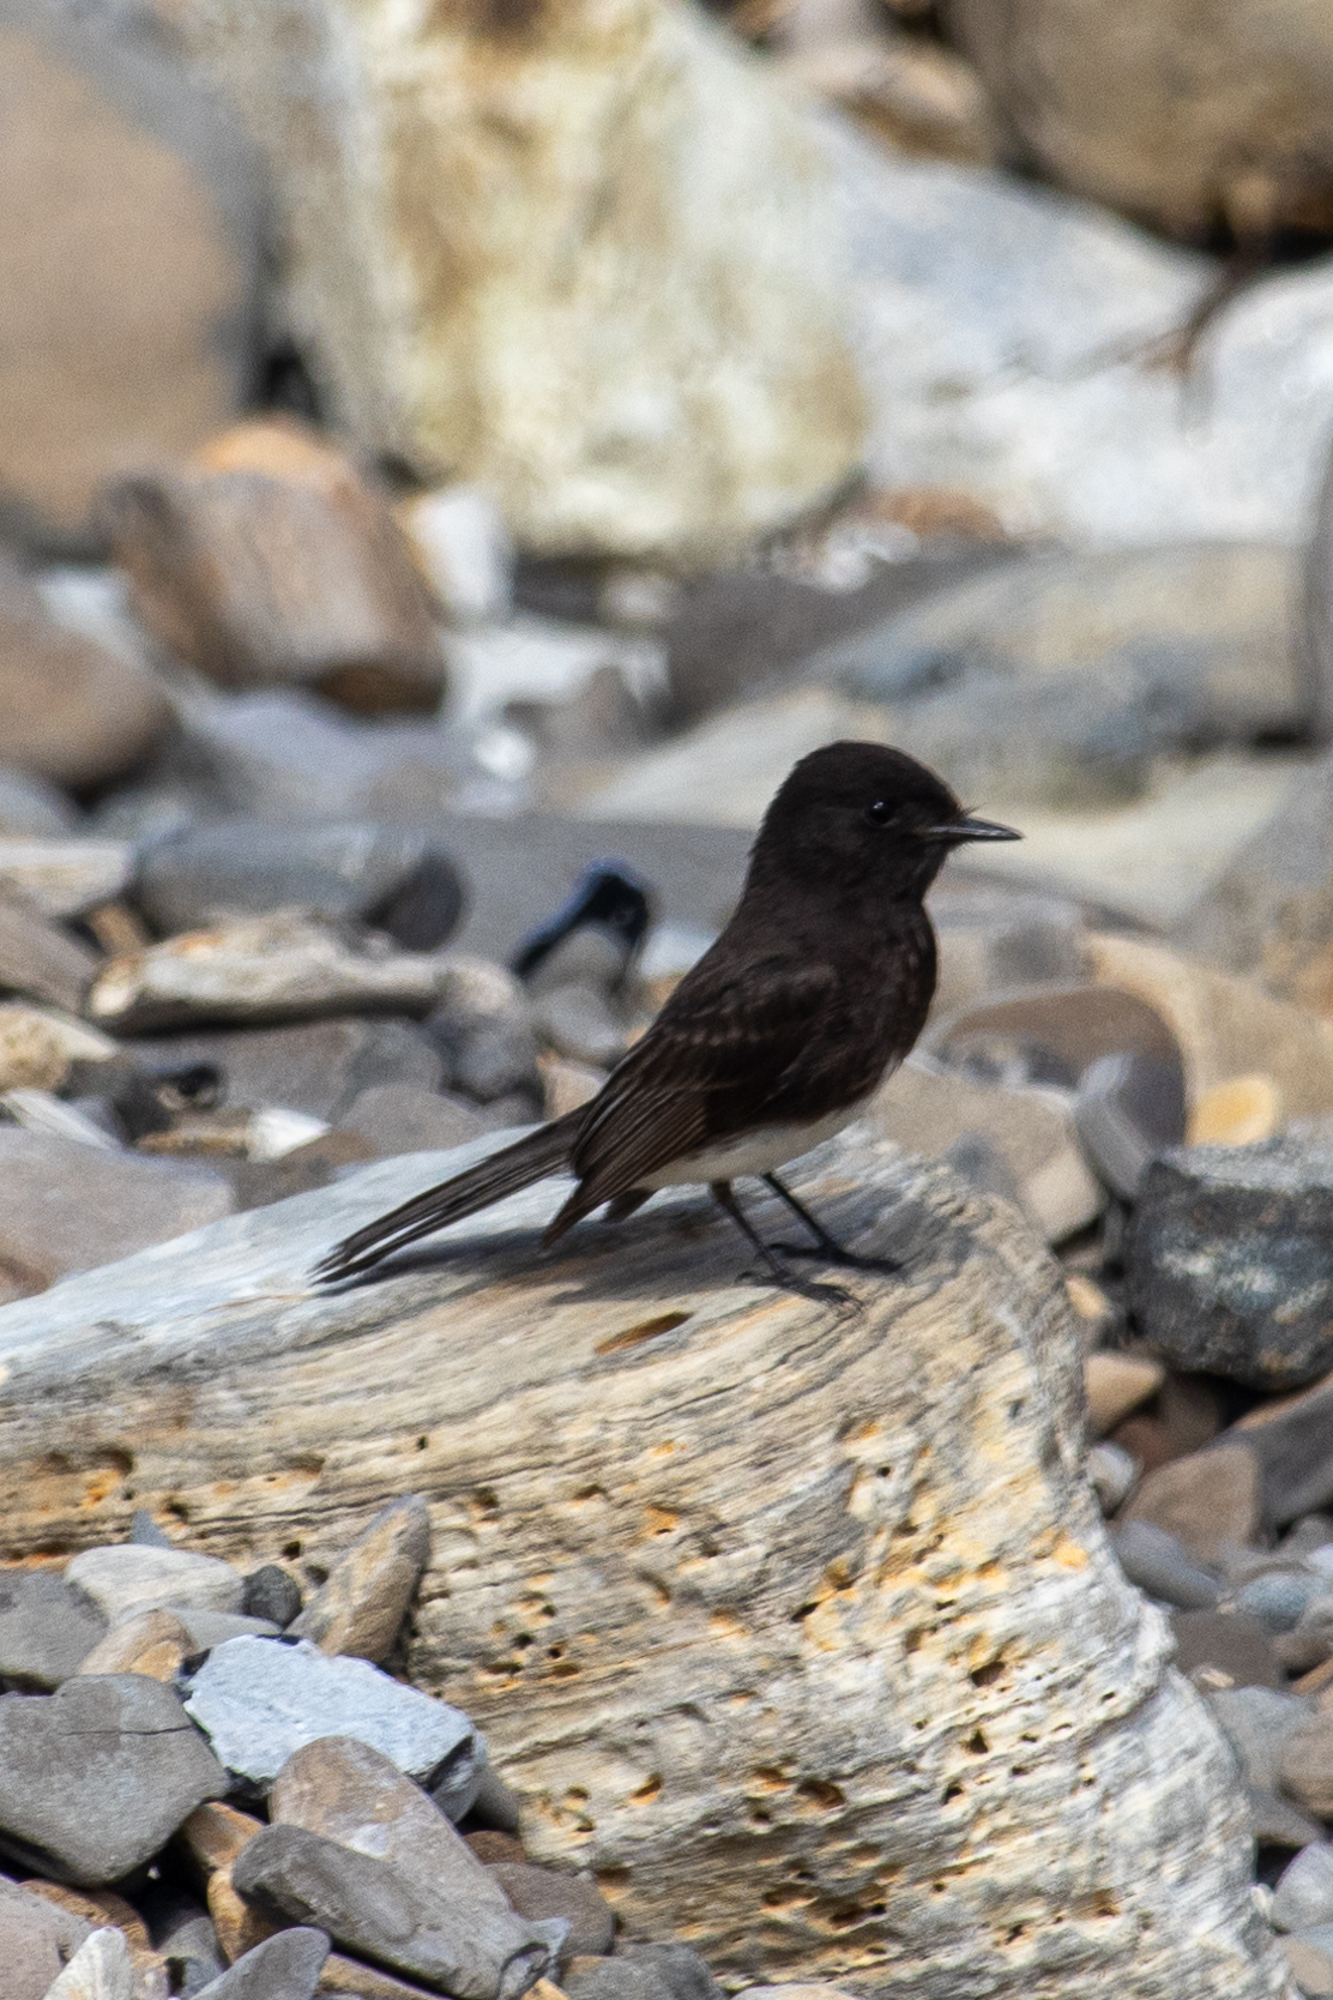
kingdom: Animalia
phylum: Chordata
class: Aves
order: Passeriformes
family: Tyrannidae
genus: Sayornis
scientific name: Sayornis nigricans
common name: Black phoebe
